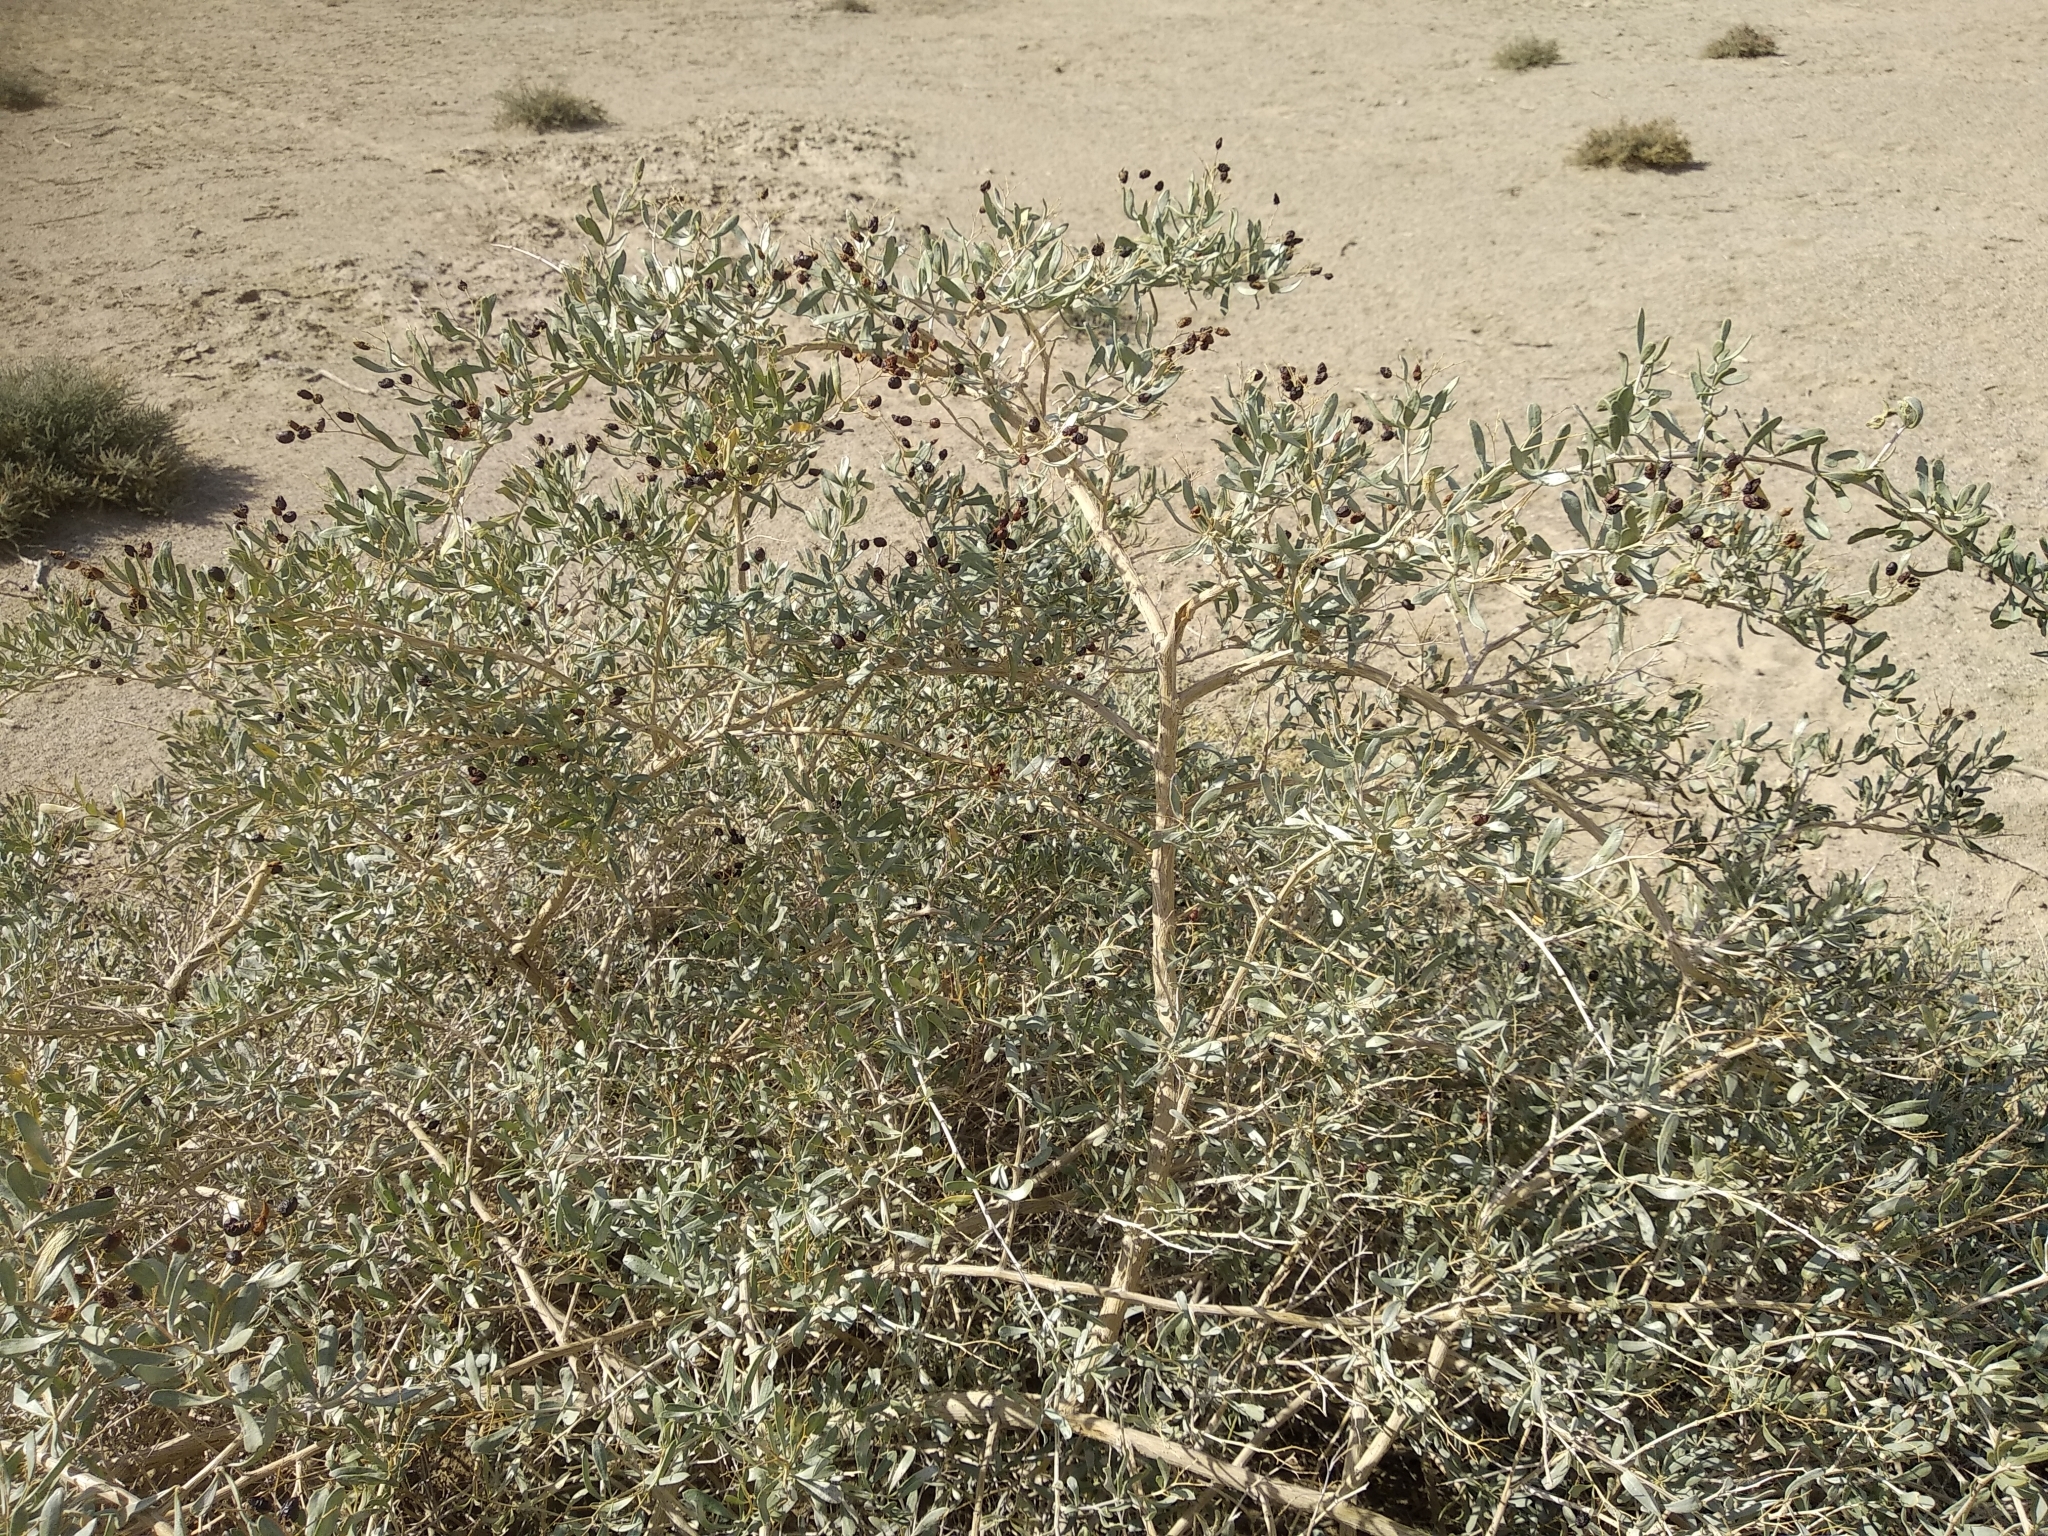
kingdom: Plantae
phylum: Tracheophyta
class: Magnoliopsida
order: Sapindales
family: Nitrariaceae
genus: Nitraria
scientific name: Nitraria sibirica
